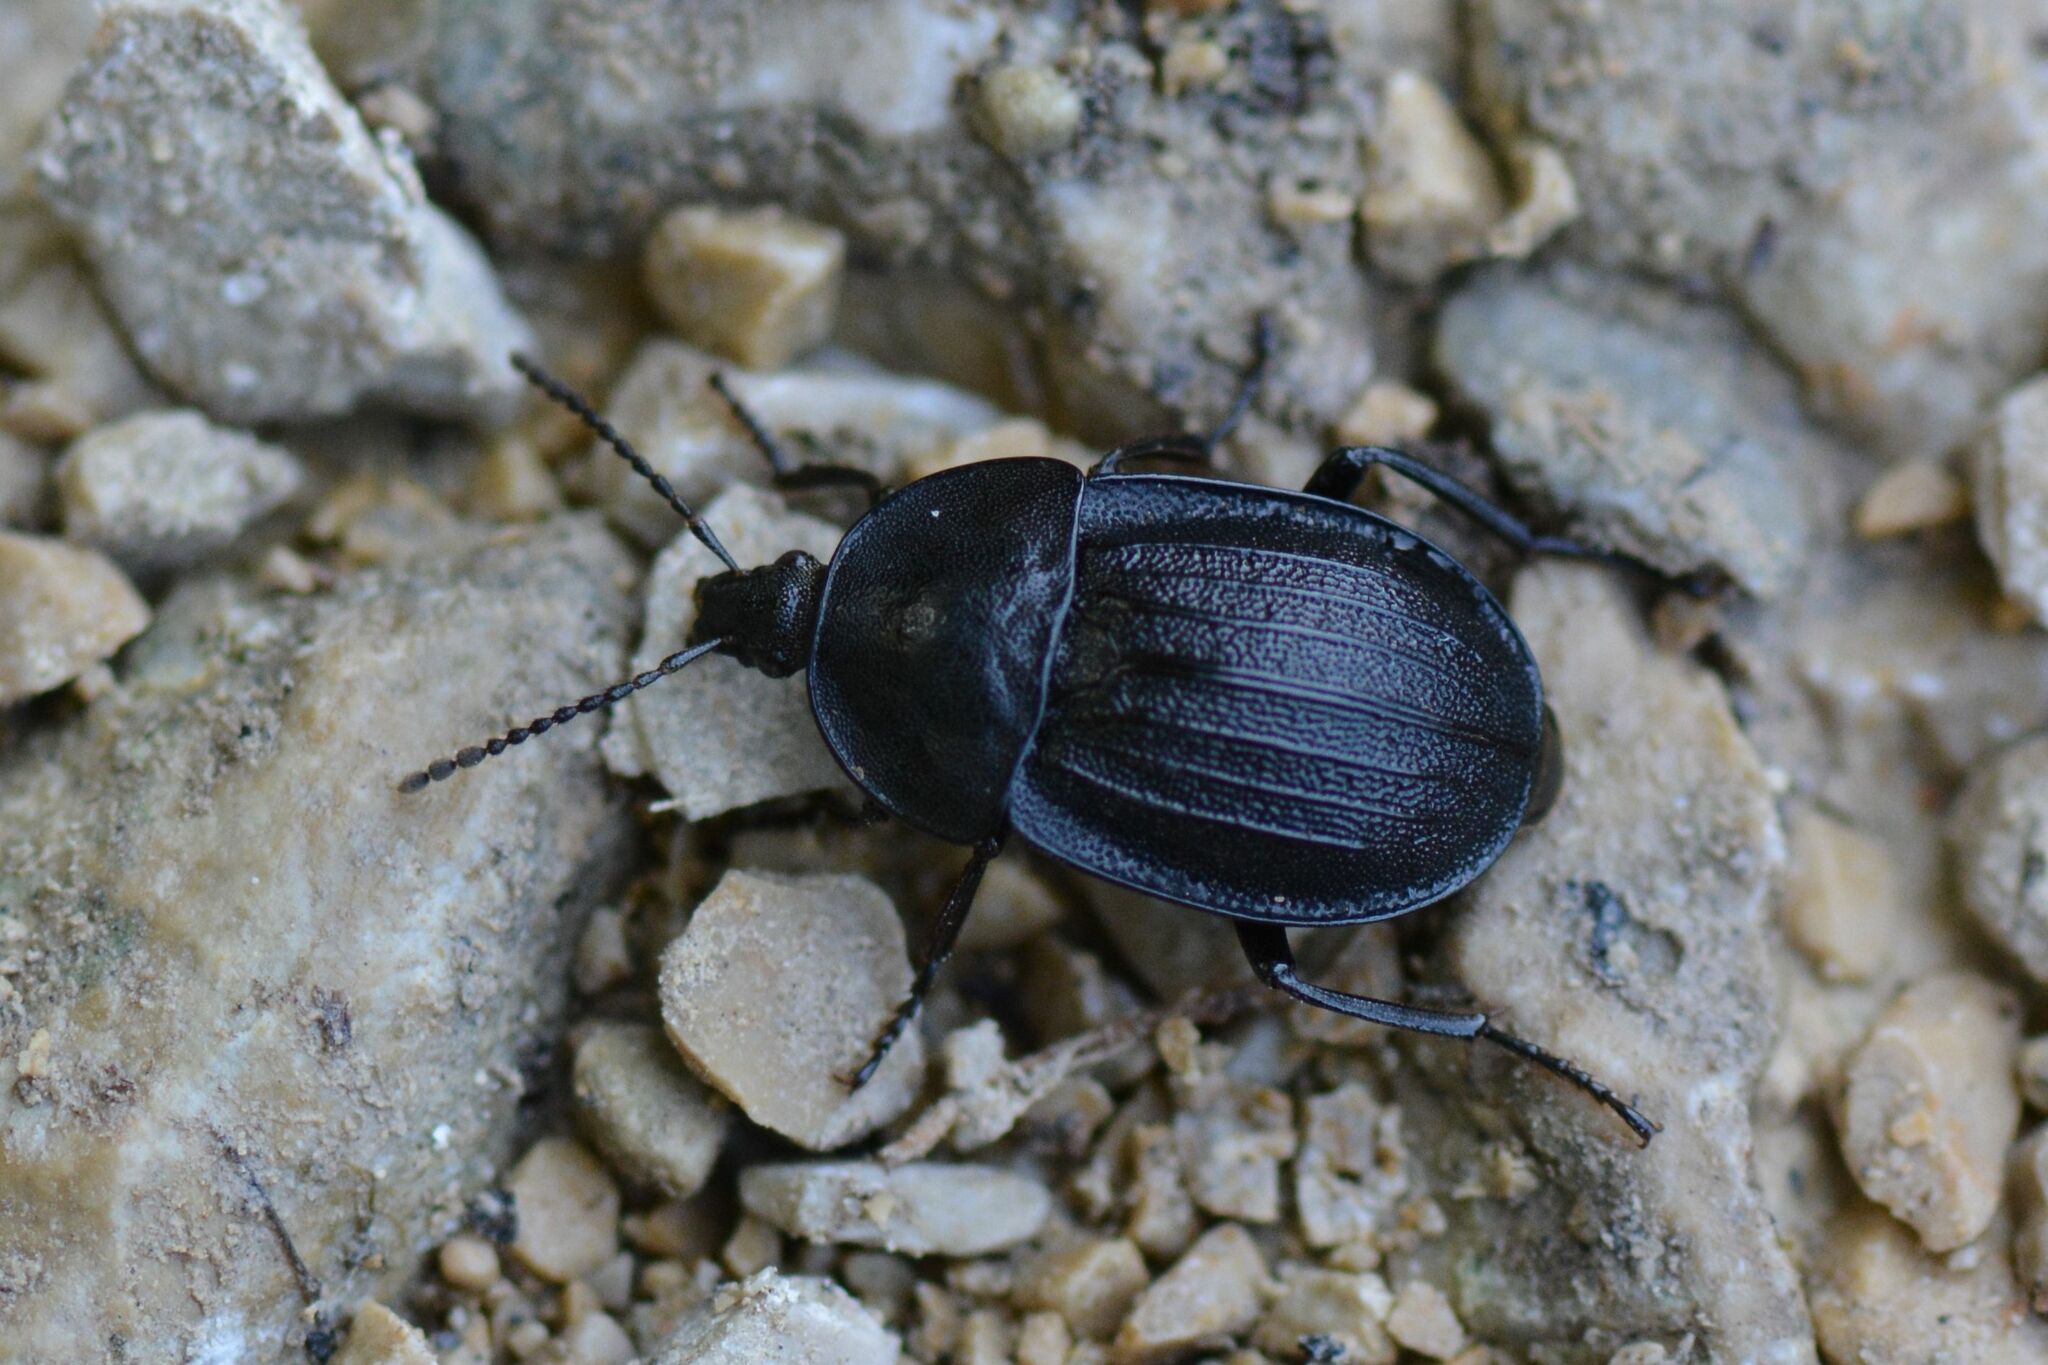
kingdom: Animalia
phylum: Arthropoda
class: Insecta
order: Coleoptera
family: Staphylinidae
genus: Silpha
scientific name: Silpha atrata
